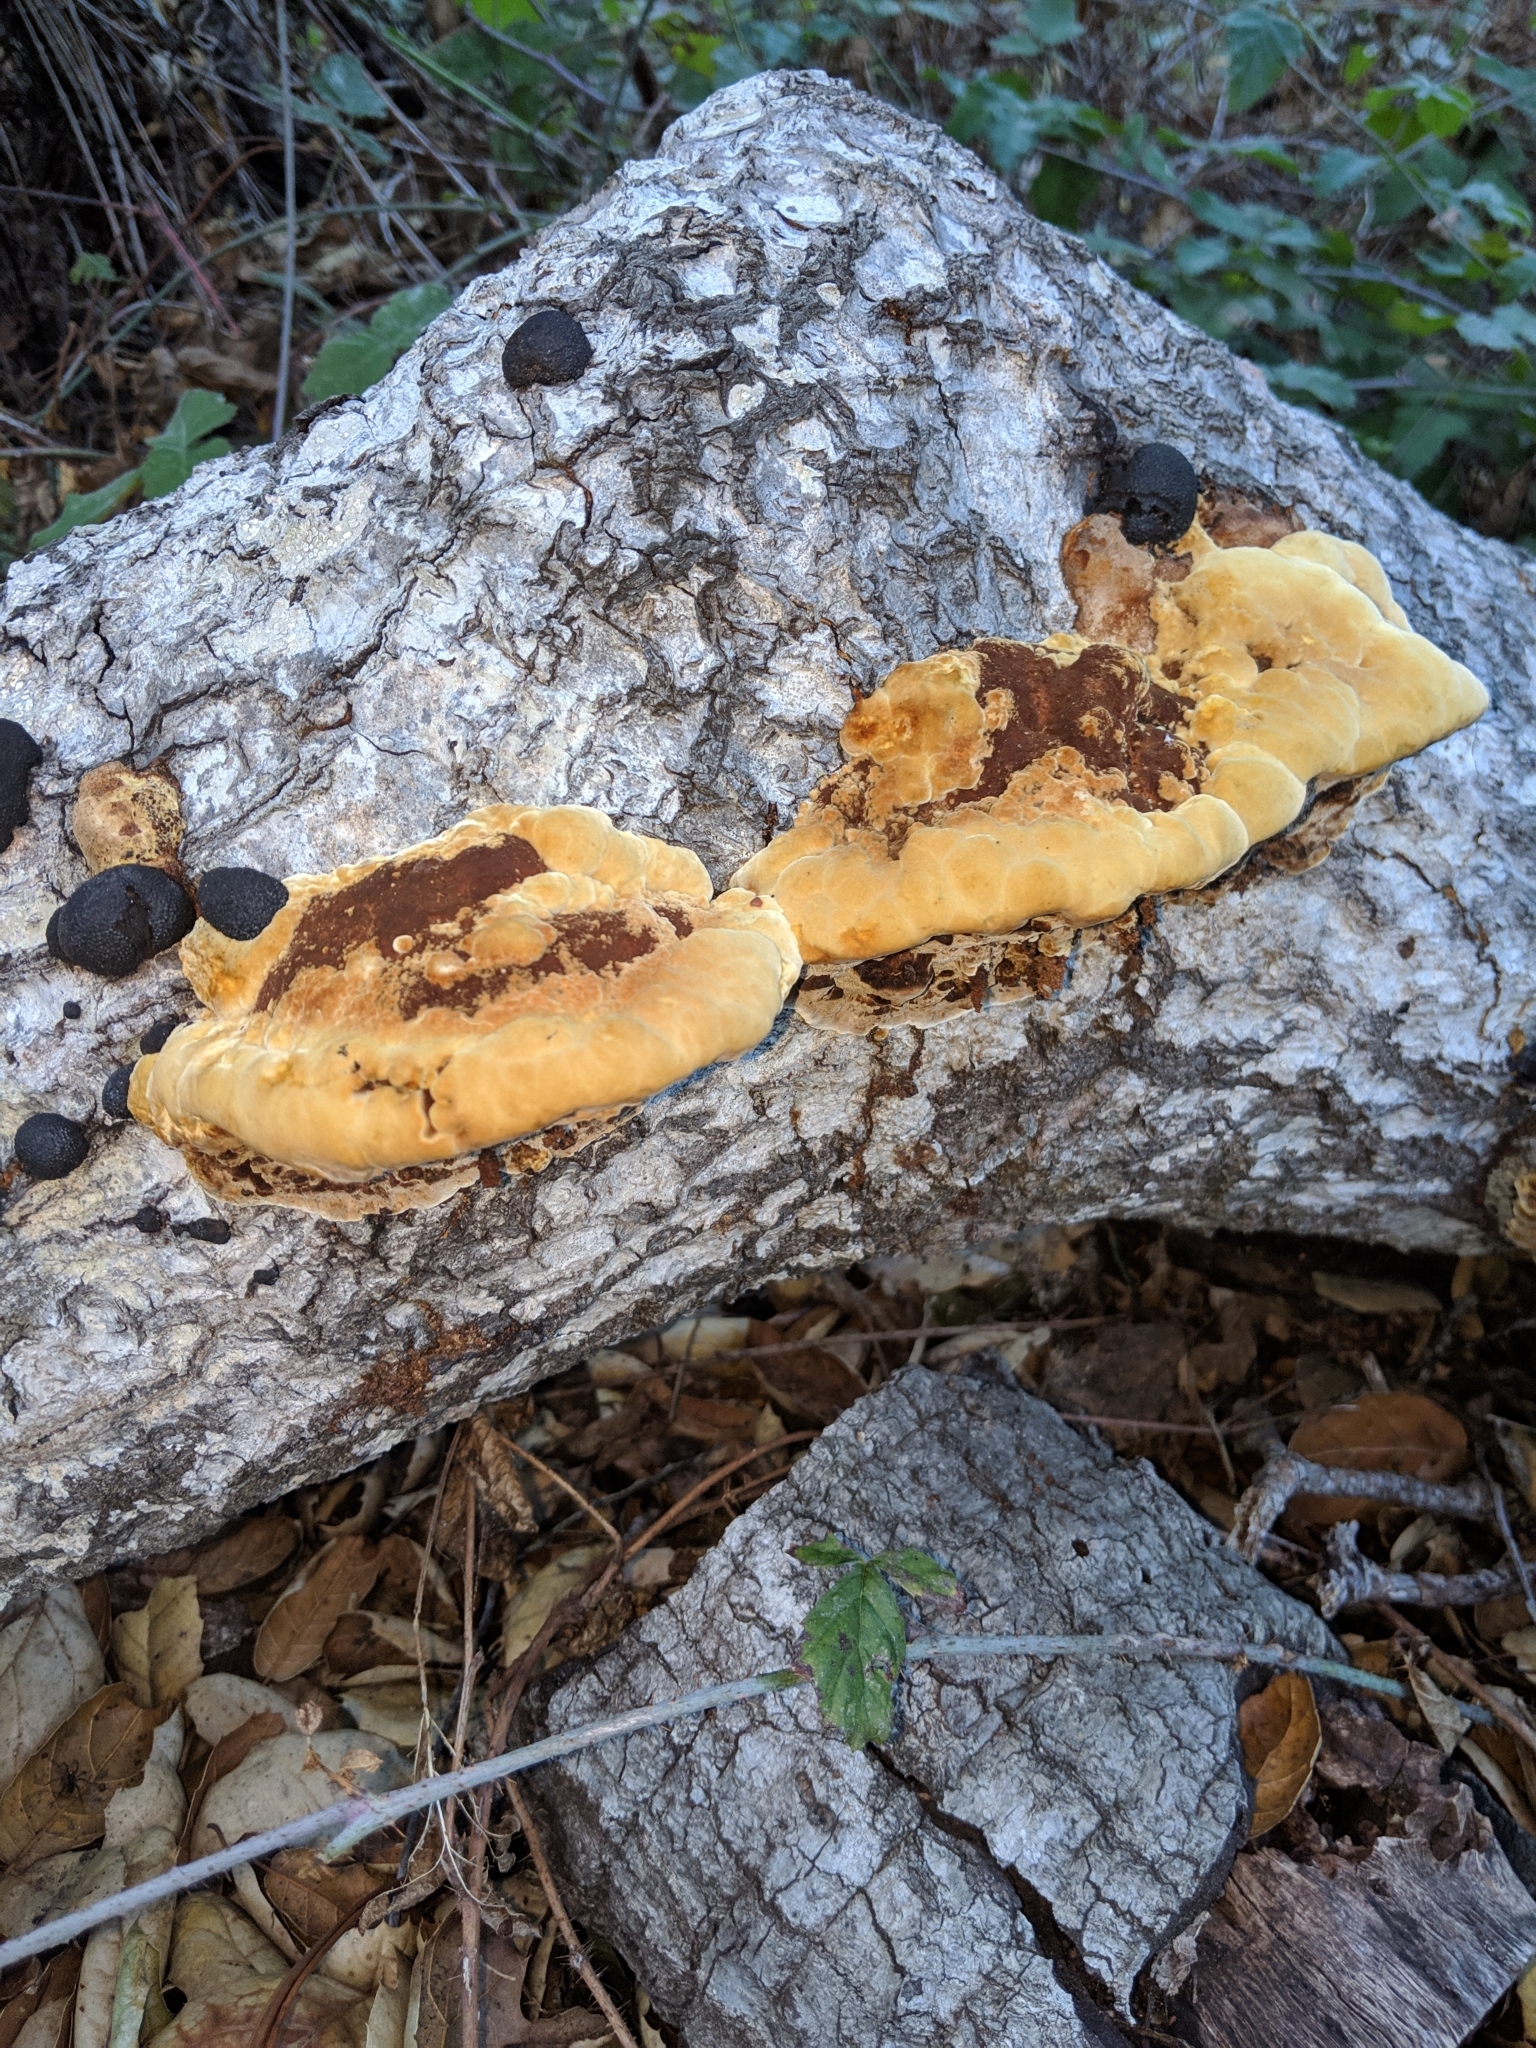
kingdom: Fungi
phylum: Basidiomycota
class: Agaricomycetes
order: Hymenochaetales
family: Hymenochaetaceae
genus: Phellinus
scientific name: Phellinus gilvus
